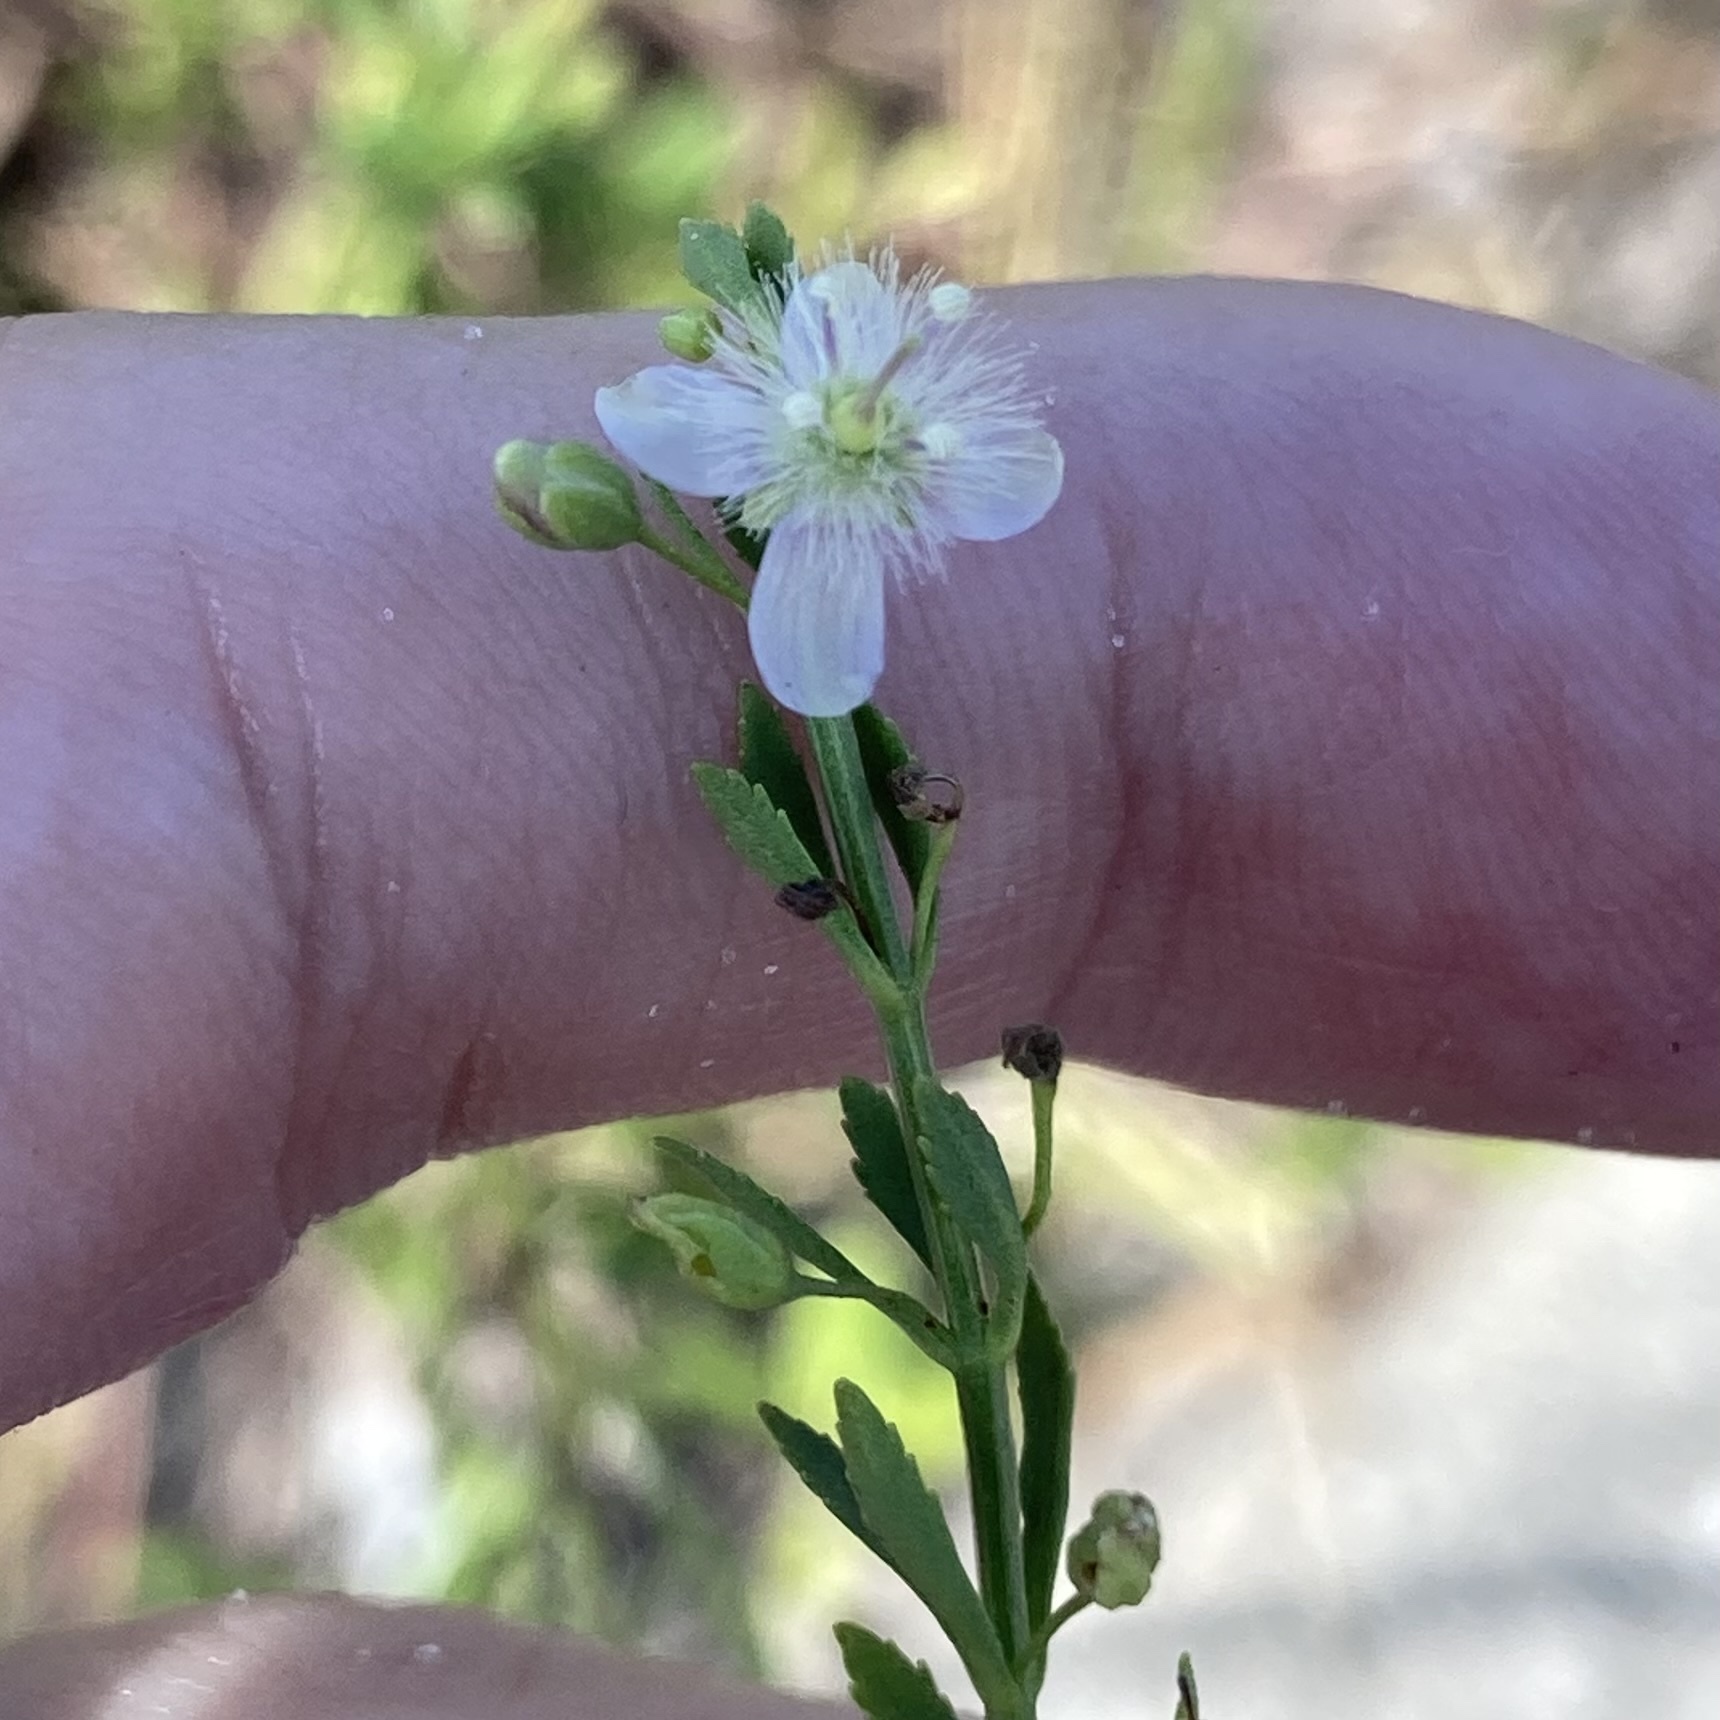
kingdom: Plantae
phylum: Tracheophyta
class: Magnoliopsida
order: Lamiales
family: Plantaginaceae
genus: Scoparia
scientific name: Scoparia dulcis
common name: Scoparia-weed
